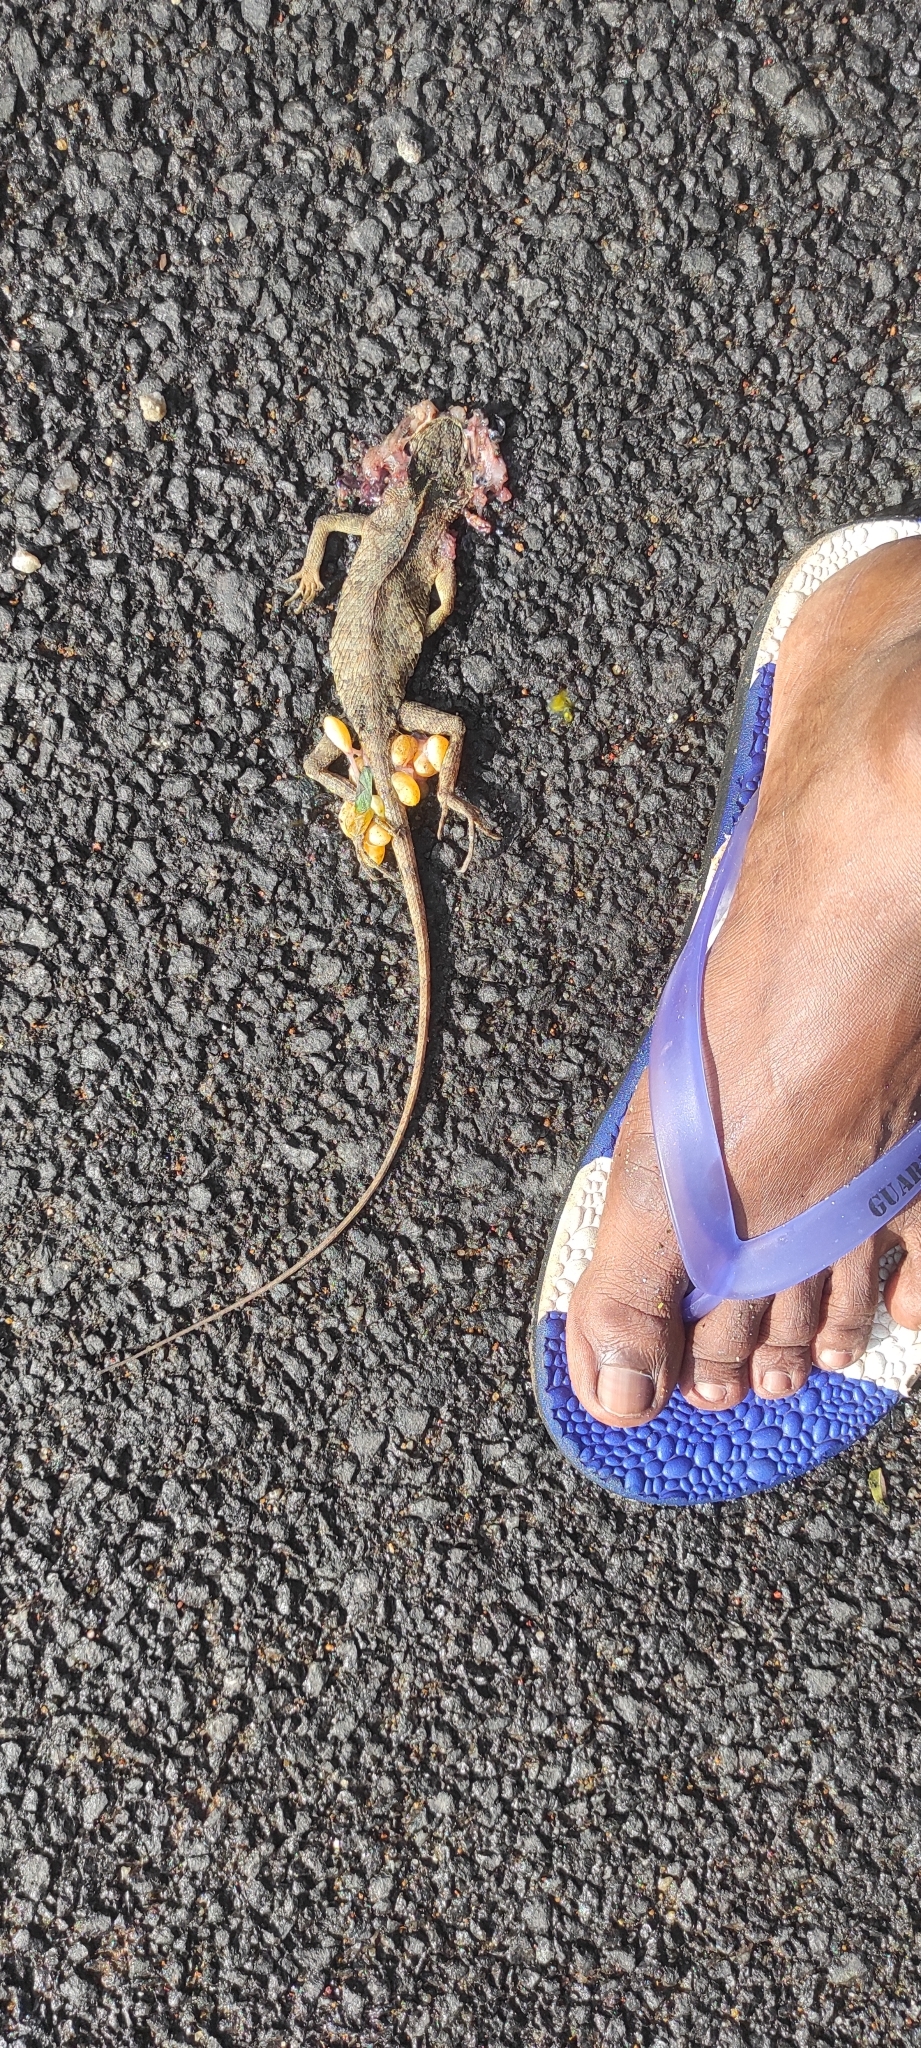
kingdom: Animalia
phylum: Chordata
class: Squamata
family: Agamidae
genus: Calotes
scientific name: Calotes versicolor
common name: Oriental garden lizard
